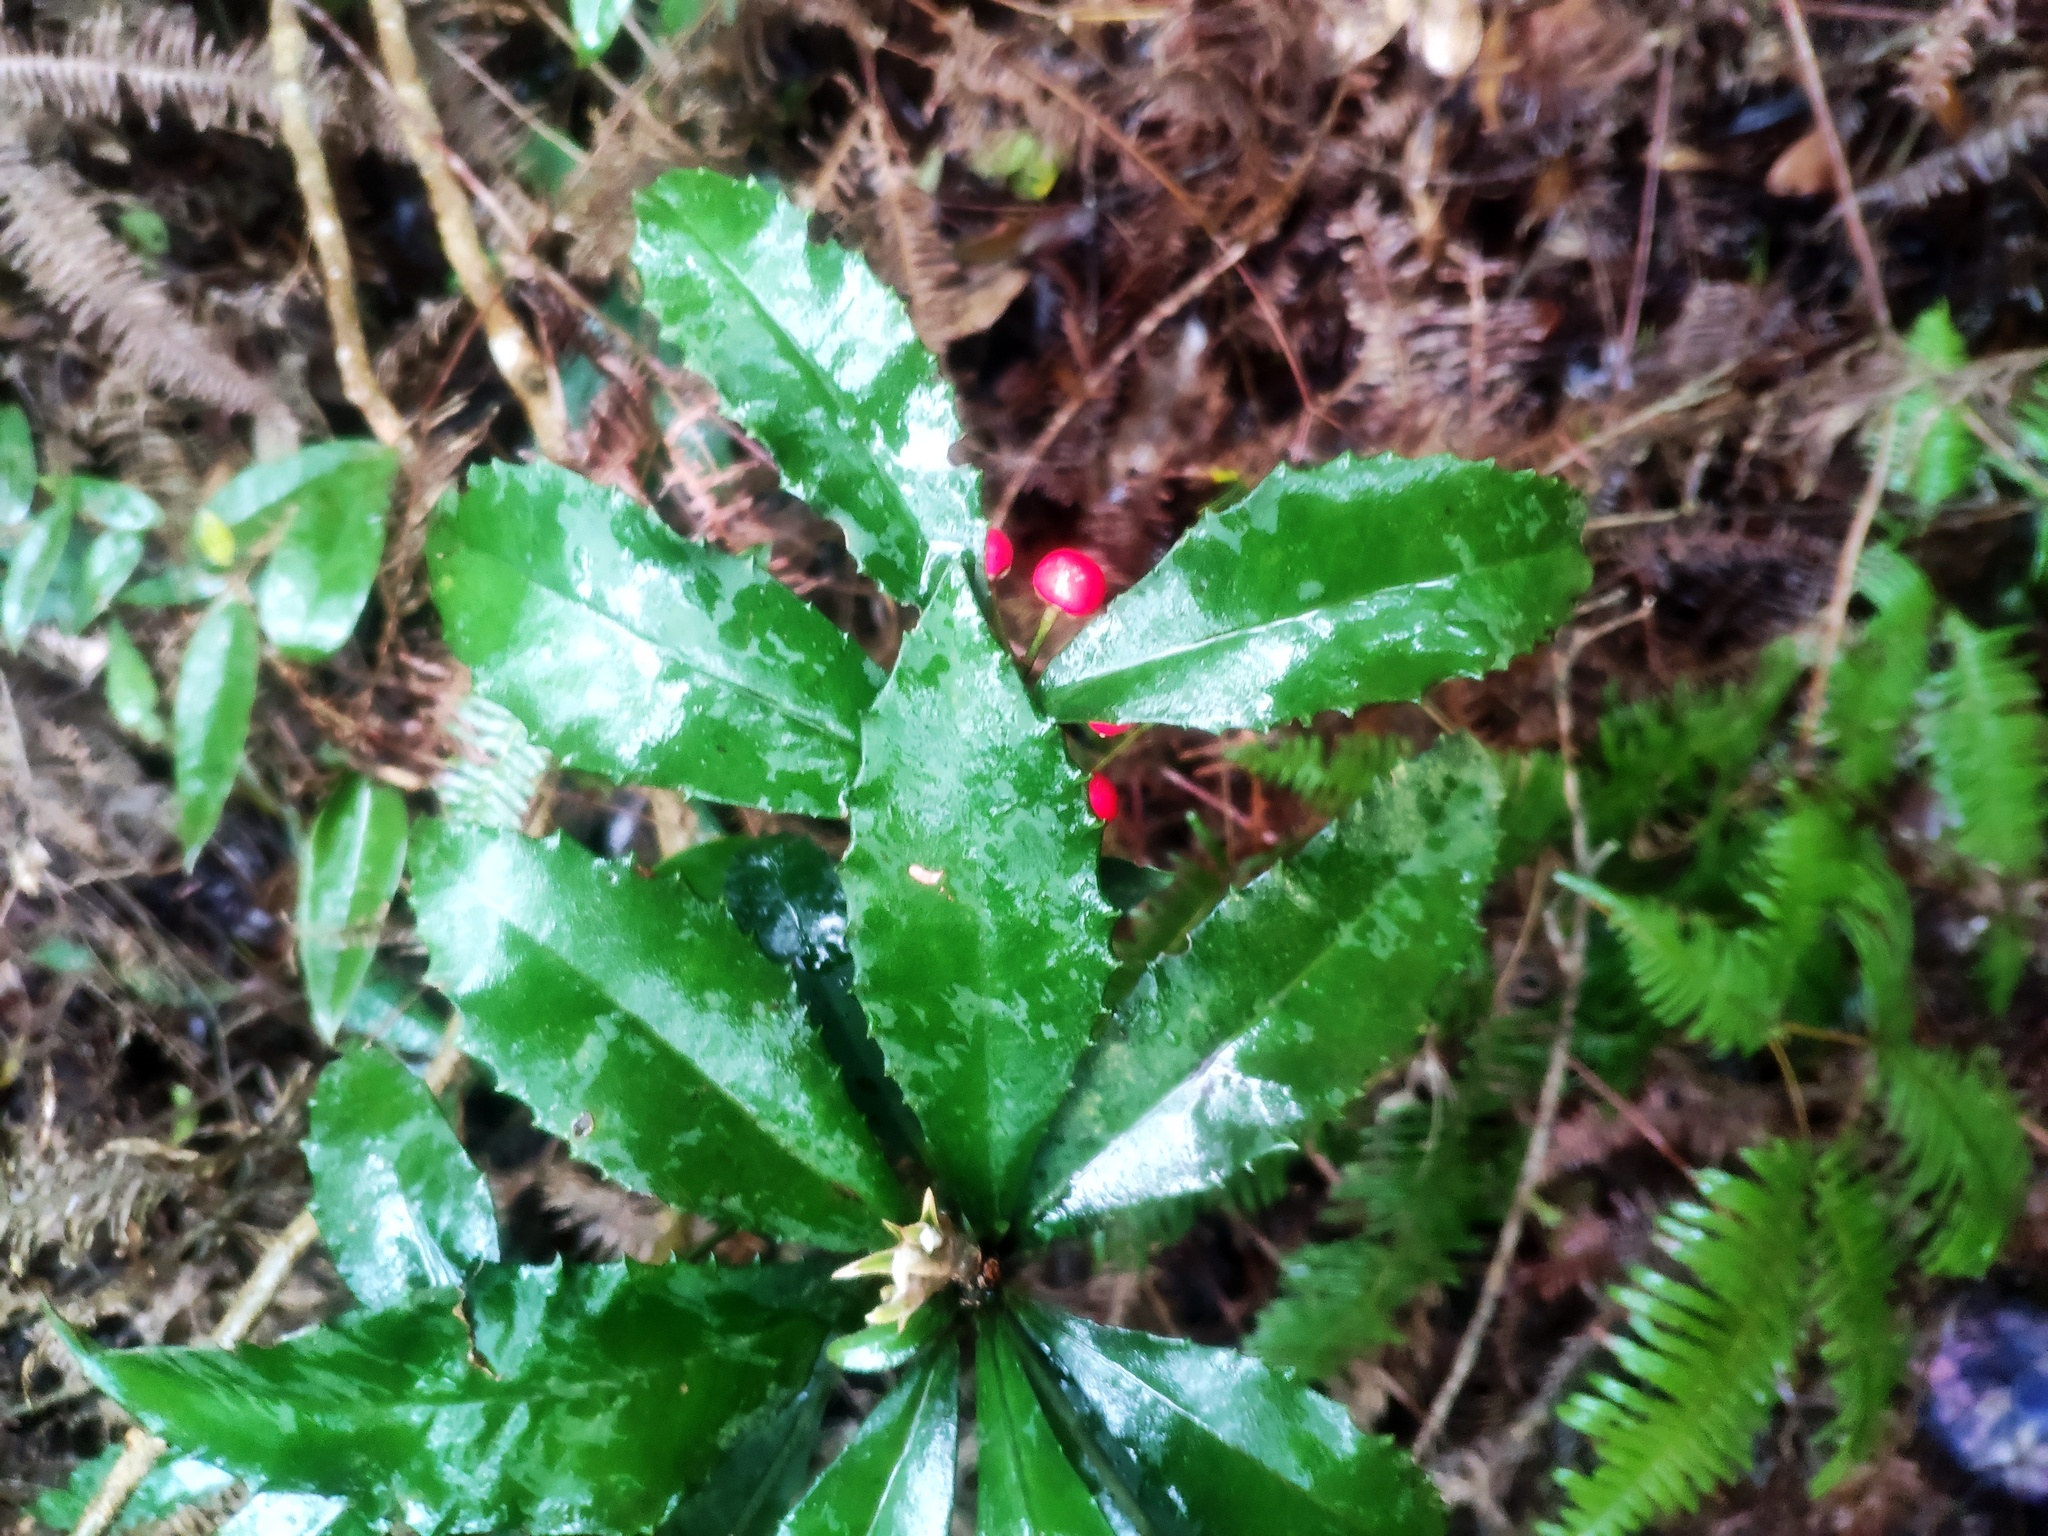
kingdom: Plantae
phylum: Tracheophyta
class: Magnoliopsida
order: Ericales
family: Primulaceae
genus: Ardisia
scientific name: Ardisia cornudentata
